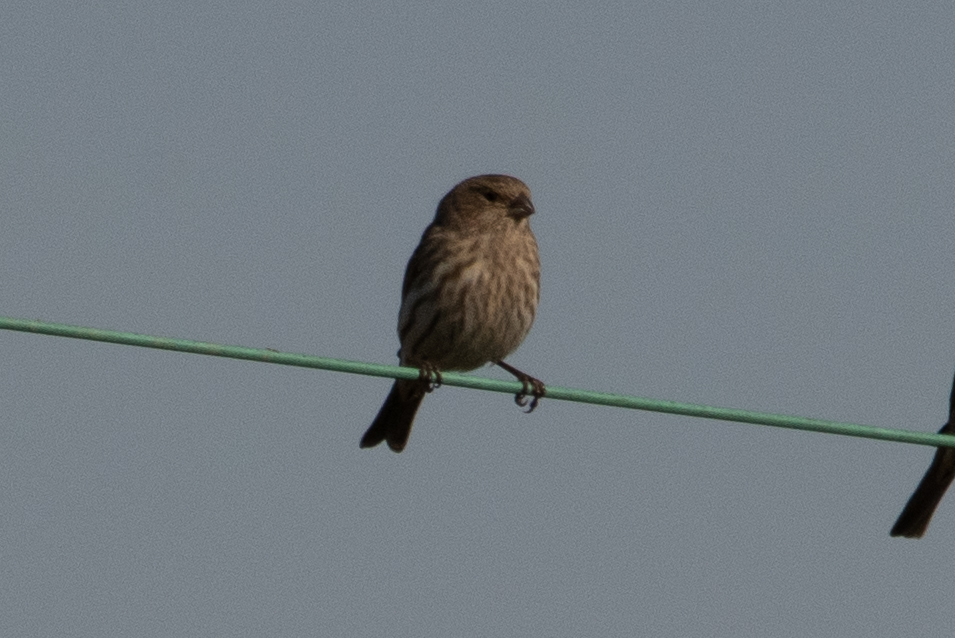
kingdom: Animalia
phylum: Chordata
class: Aves
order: Passeriformes
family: Fringillidae
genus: Haemorhous
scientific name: Haemorhous mexicanus
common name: House finch
